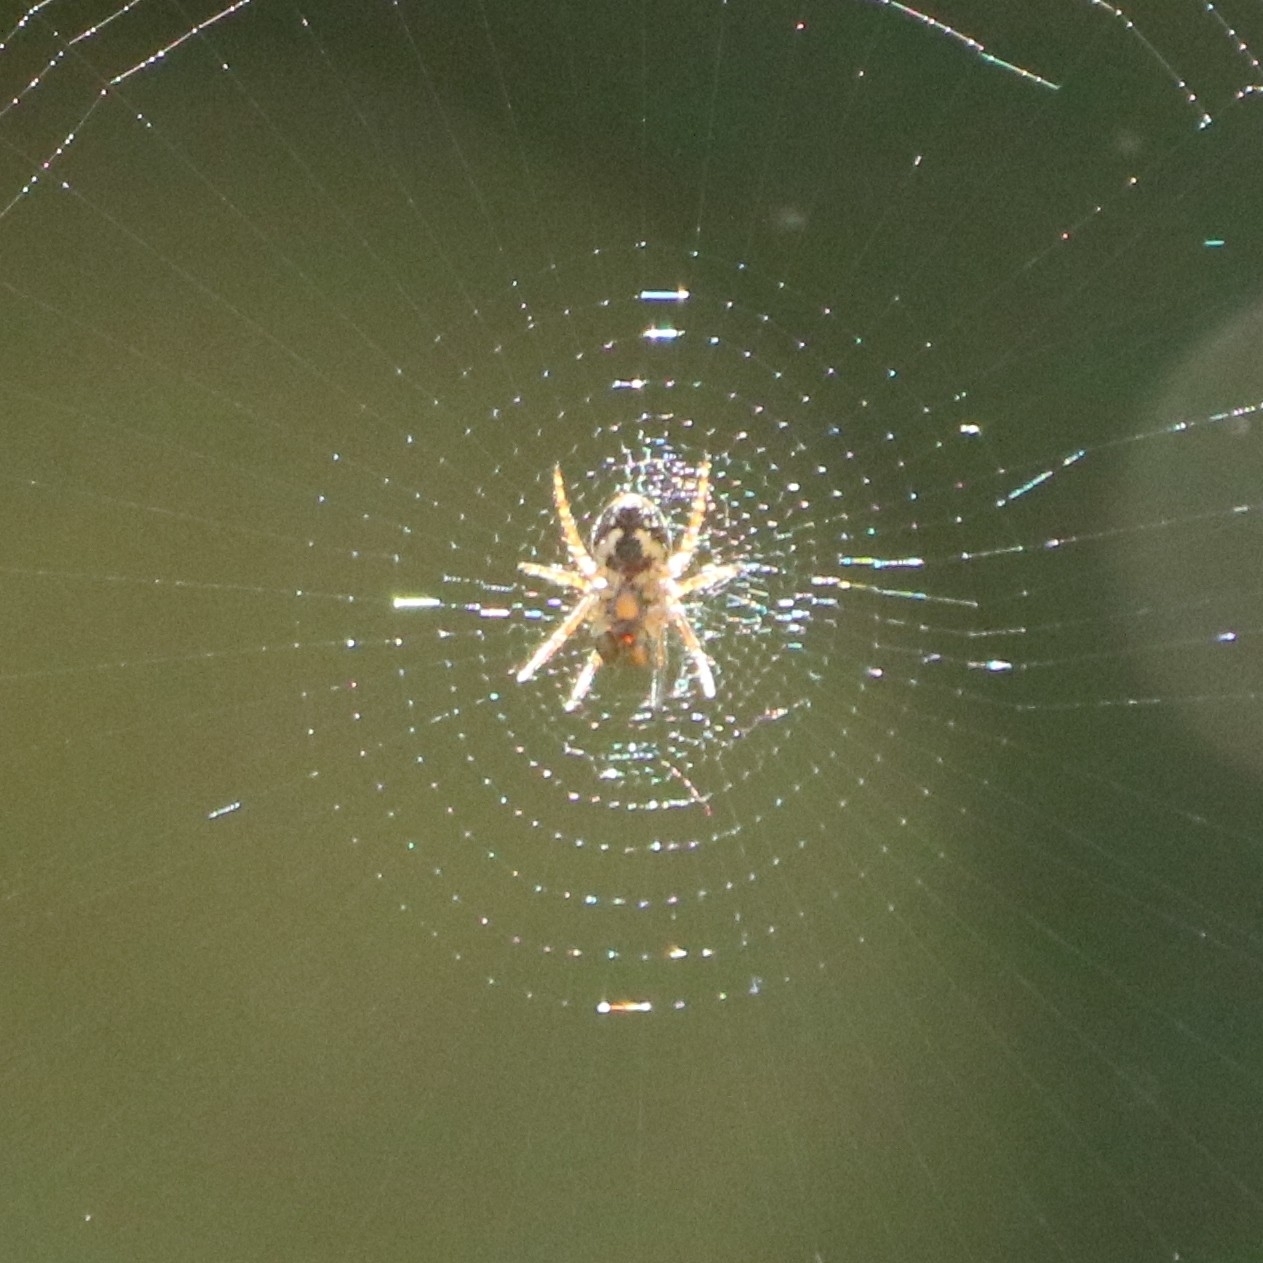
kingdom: Animalia
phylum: Arthropoda
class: Arachnida
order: Araneae
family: Araneidae
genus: Zilla
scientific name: Zilla diodia
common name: Zilla diodia
